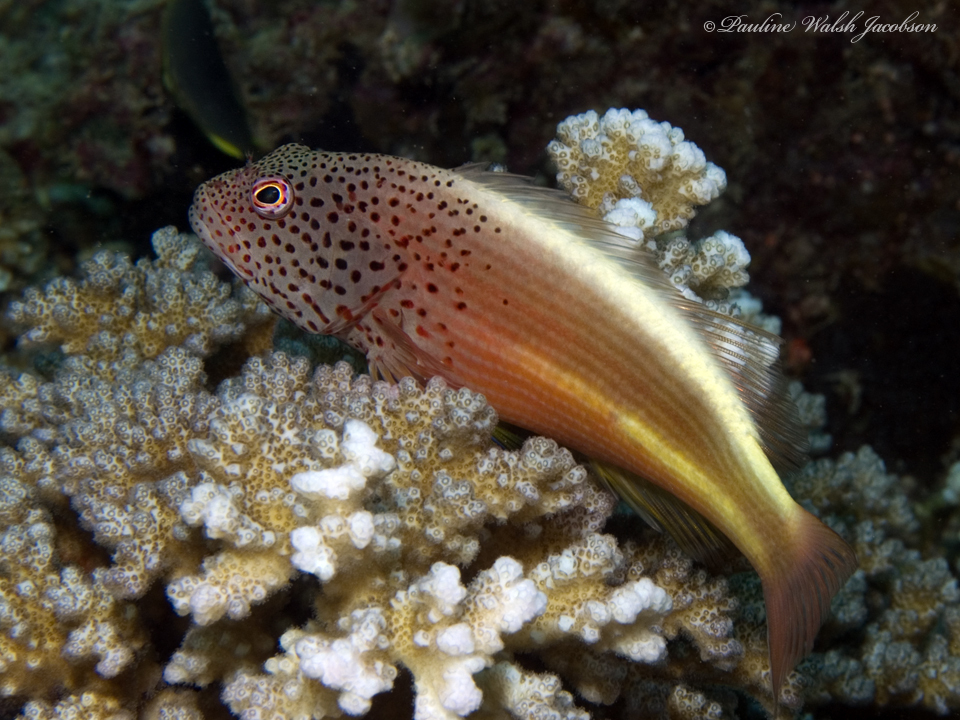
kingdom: Animalia
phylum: Chordata
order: Perciformes
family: Cirrhitidae
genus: Paracirrhites
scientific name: Paracirrhites forsteri
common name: Freckled hawkfish
